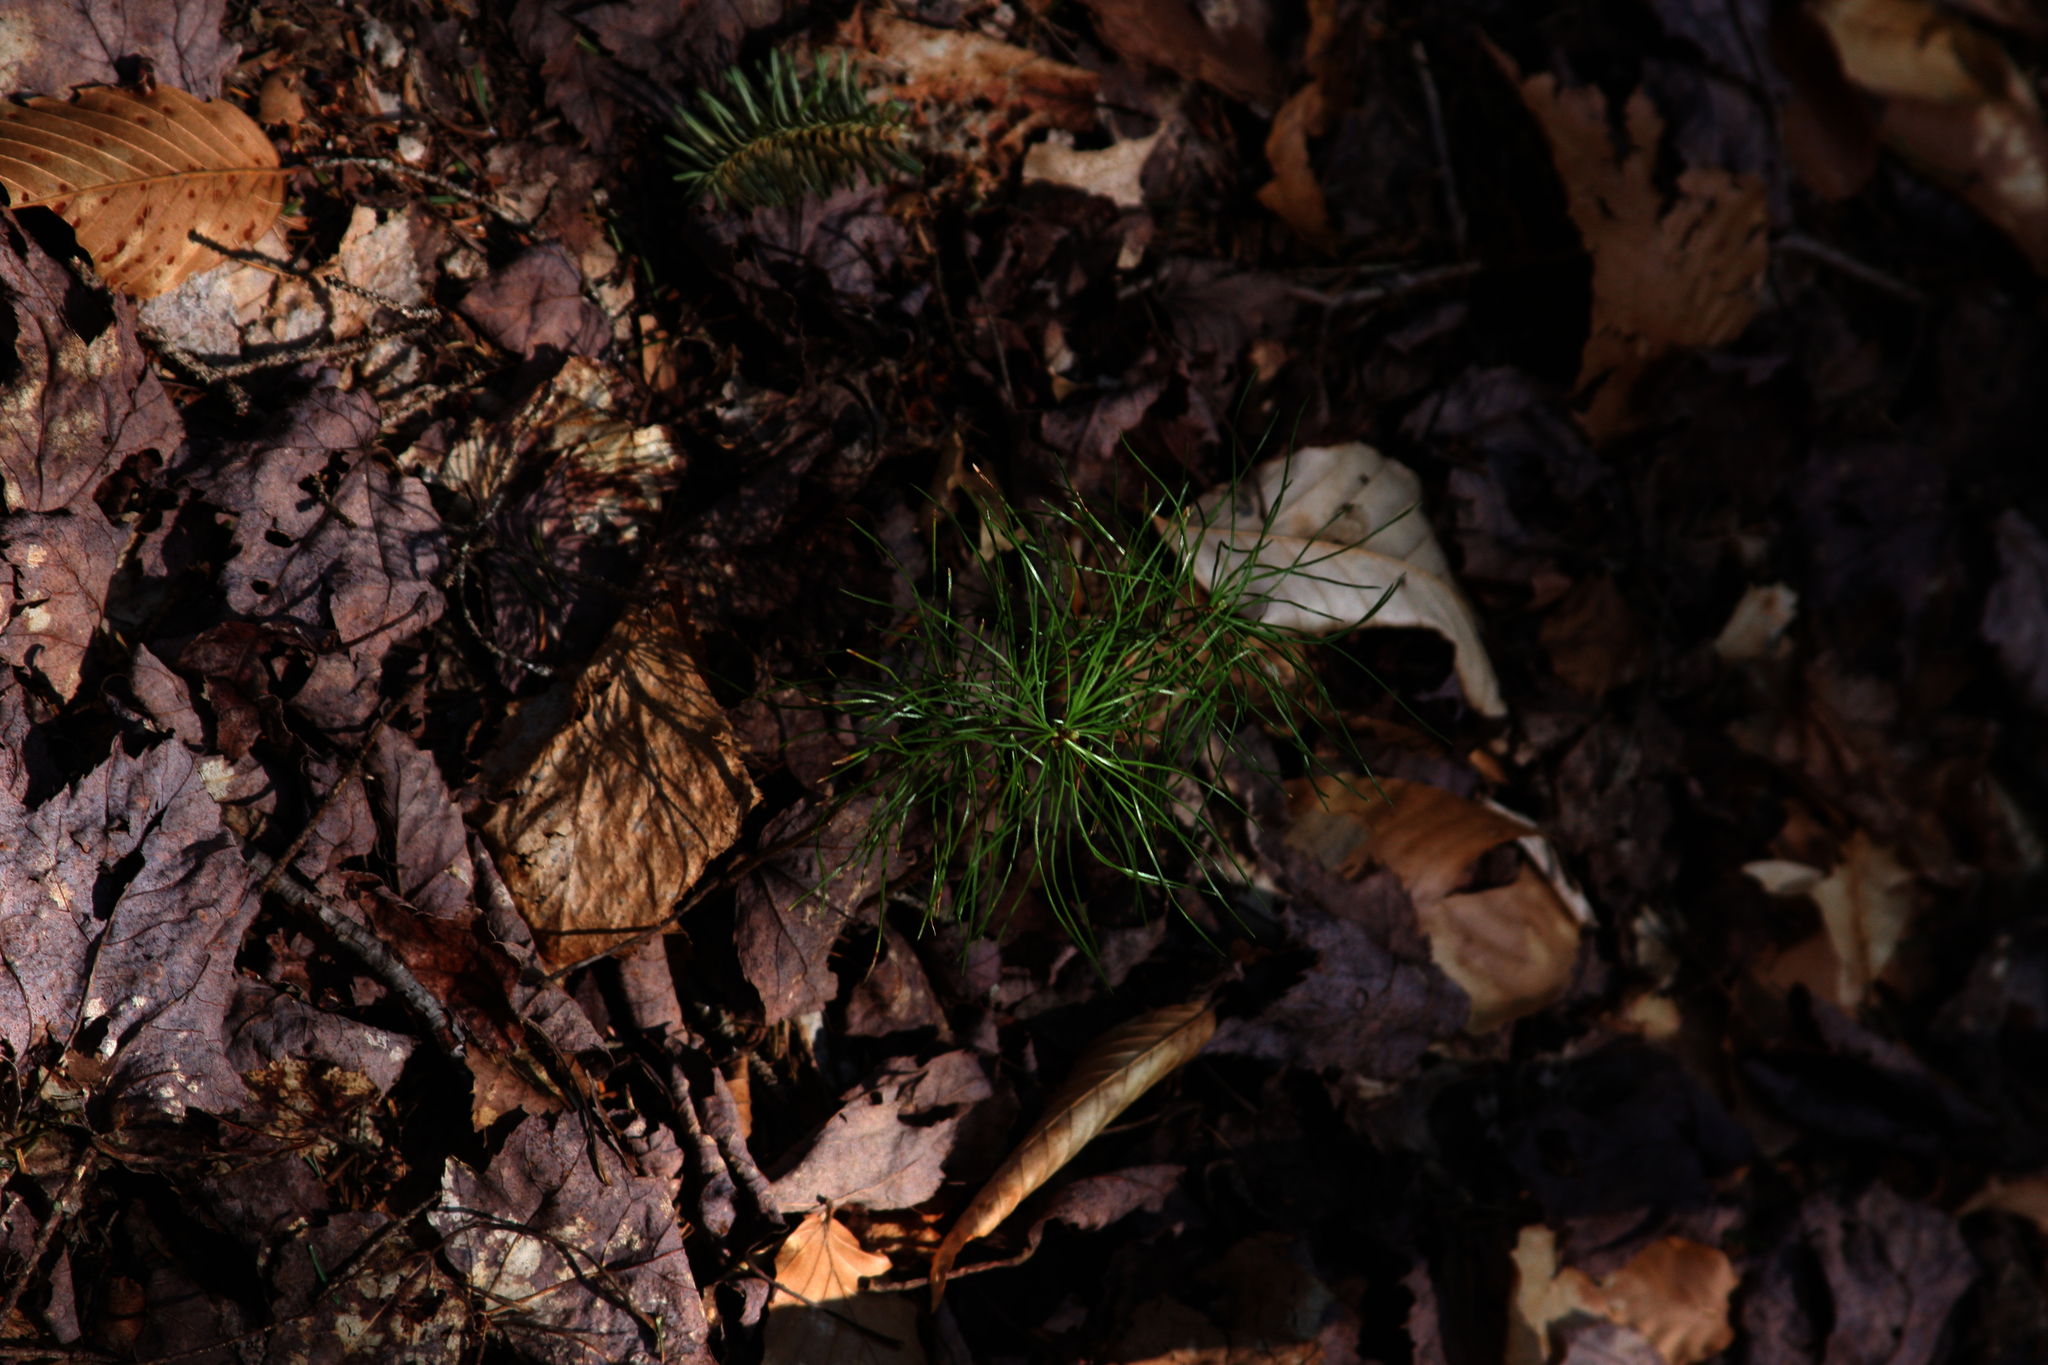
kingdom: Plantae
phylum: Tracheophyta
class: Pinopsida
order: Pinales
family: Pinaceae
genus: Pinus
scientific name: Pinus strobus
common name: Weymouth pine
